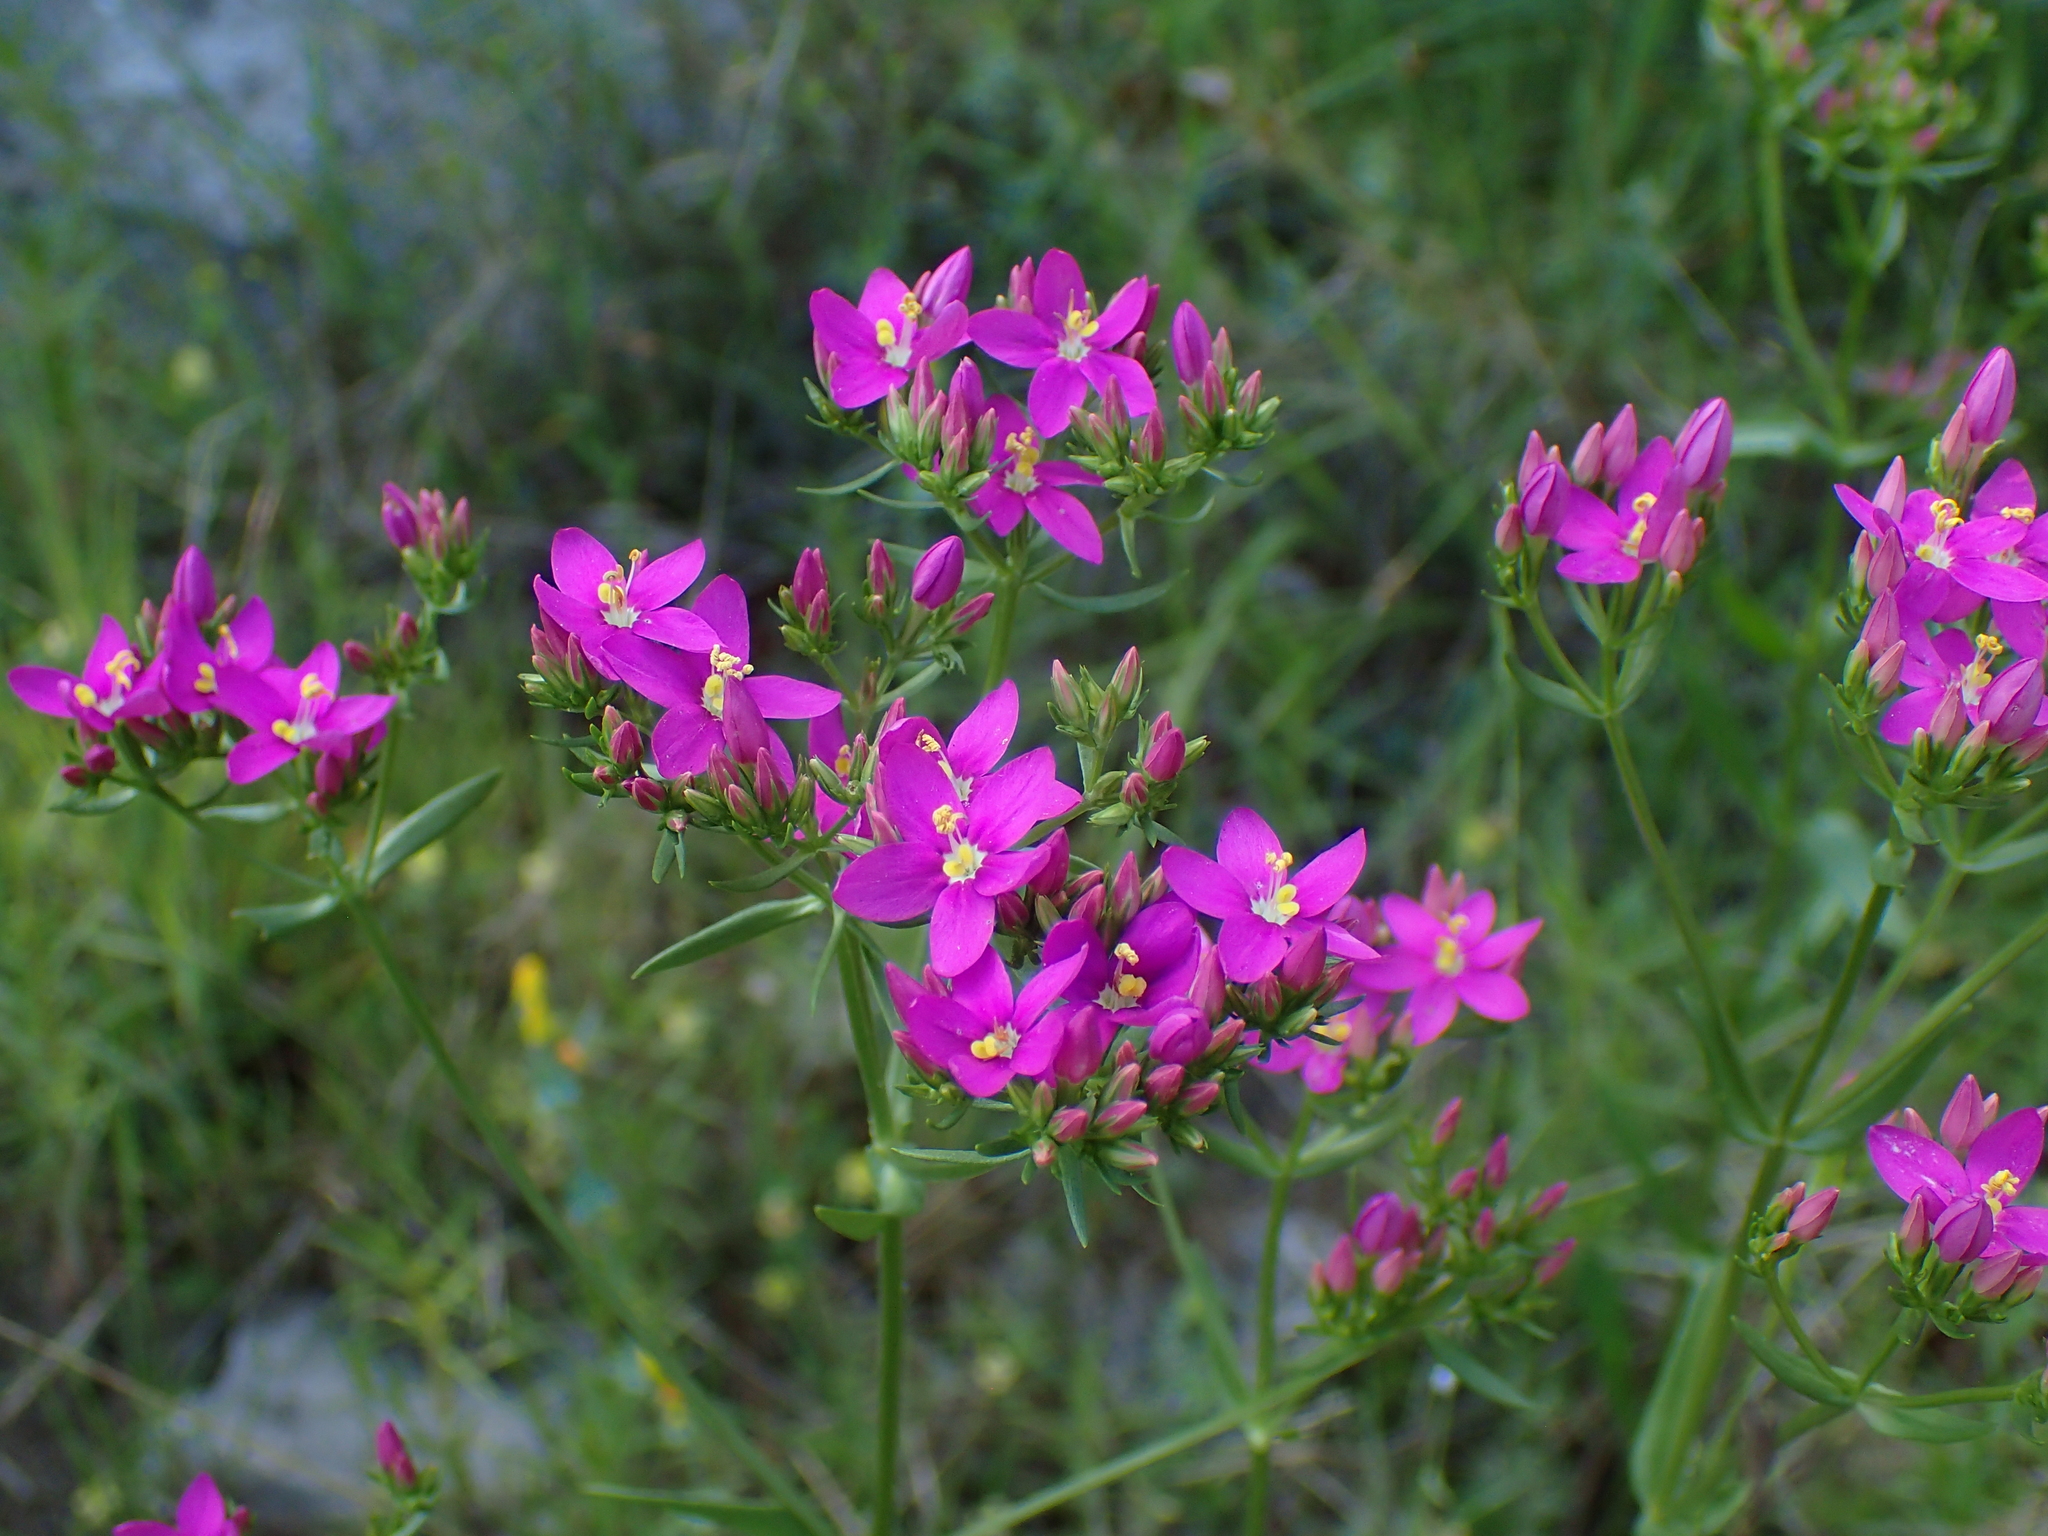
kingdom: Plantae
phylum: Tracheophyta
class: Magnoliopsida
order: Gentianales
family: Gentianaceae
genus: Centaurium
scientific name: Centaurium erythraea
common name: Common centaury
